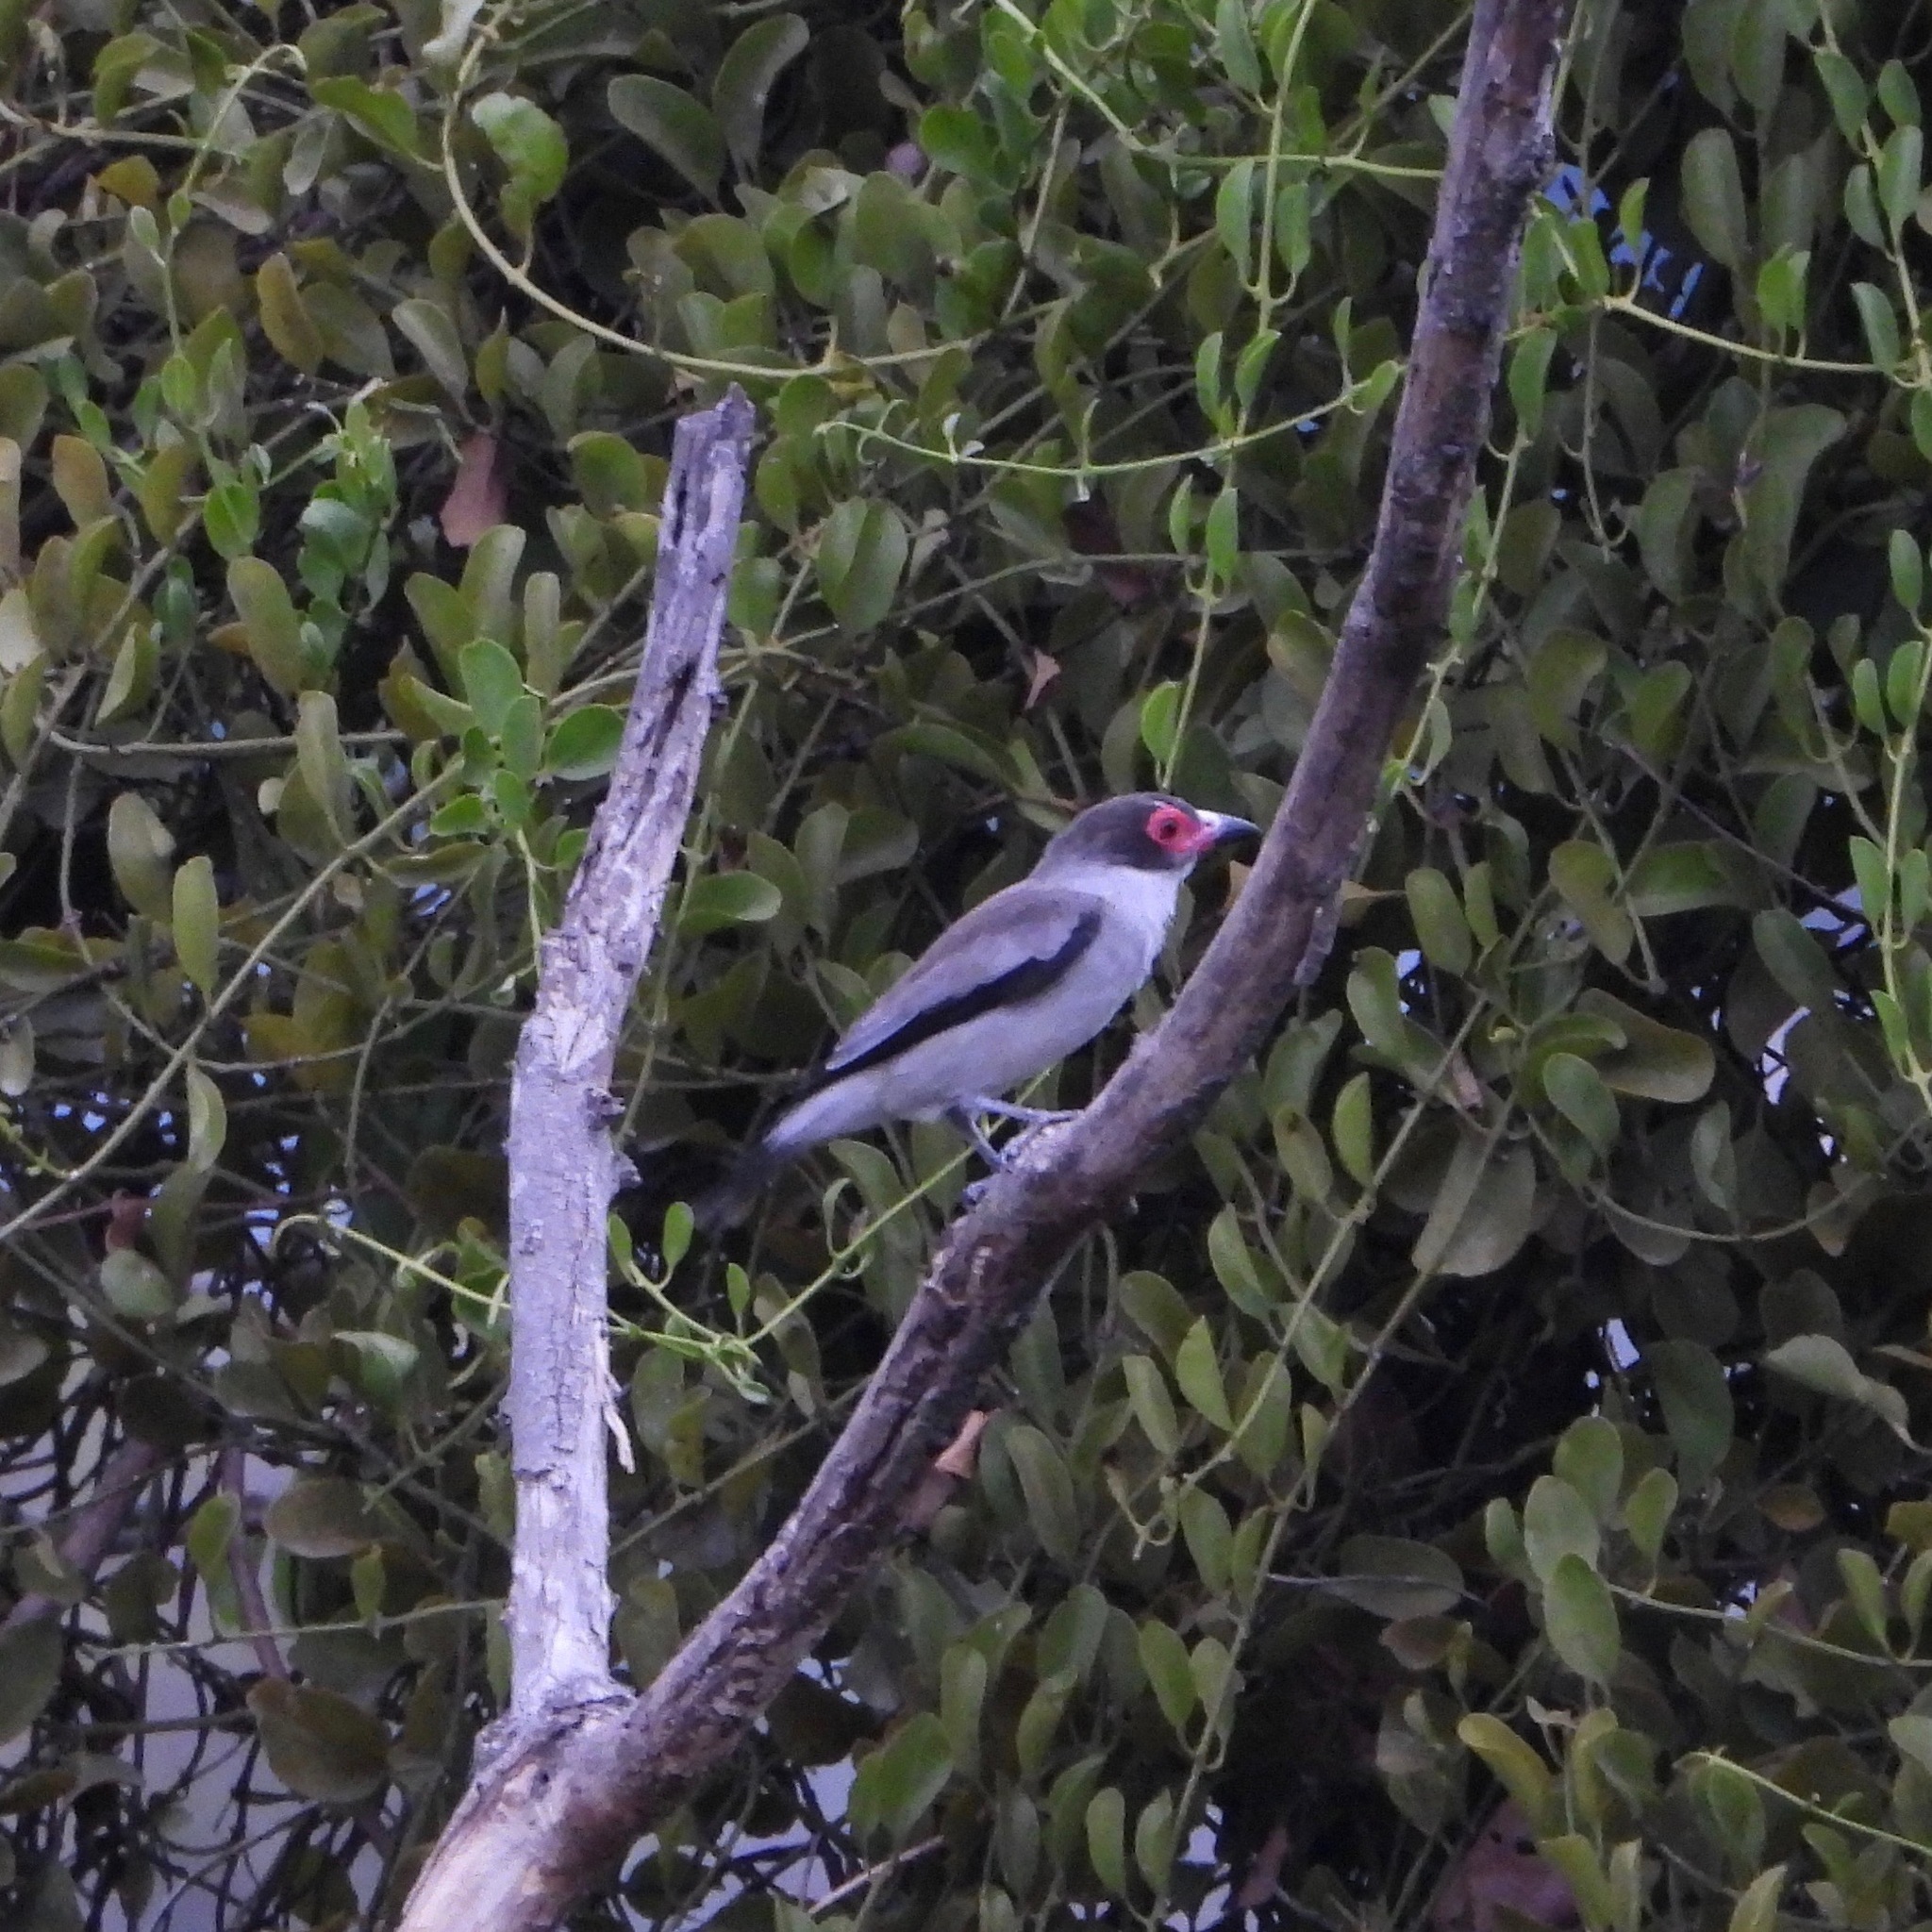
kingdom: Animalia
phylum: Chordata
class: Aves
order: Passeriformes
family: Cotingidae
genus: Tityra
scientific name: Tityra semifasciata
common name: Masked tityra
